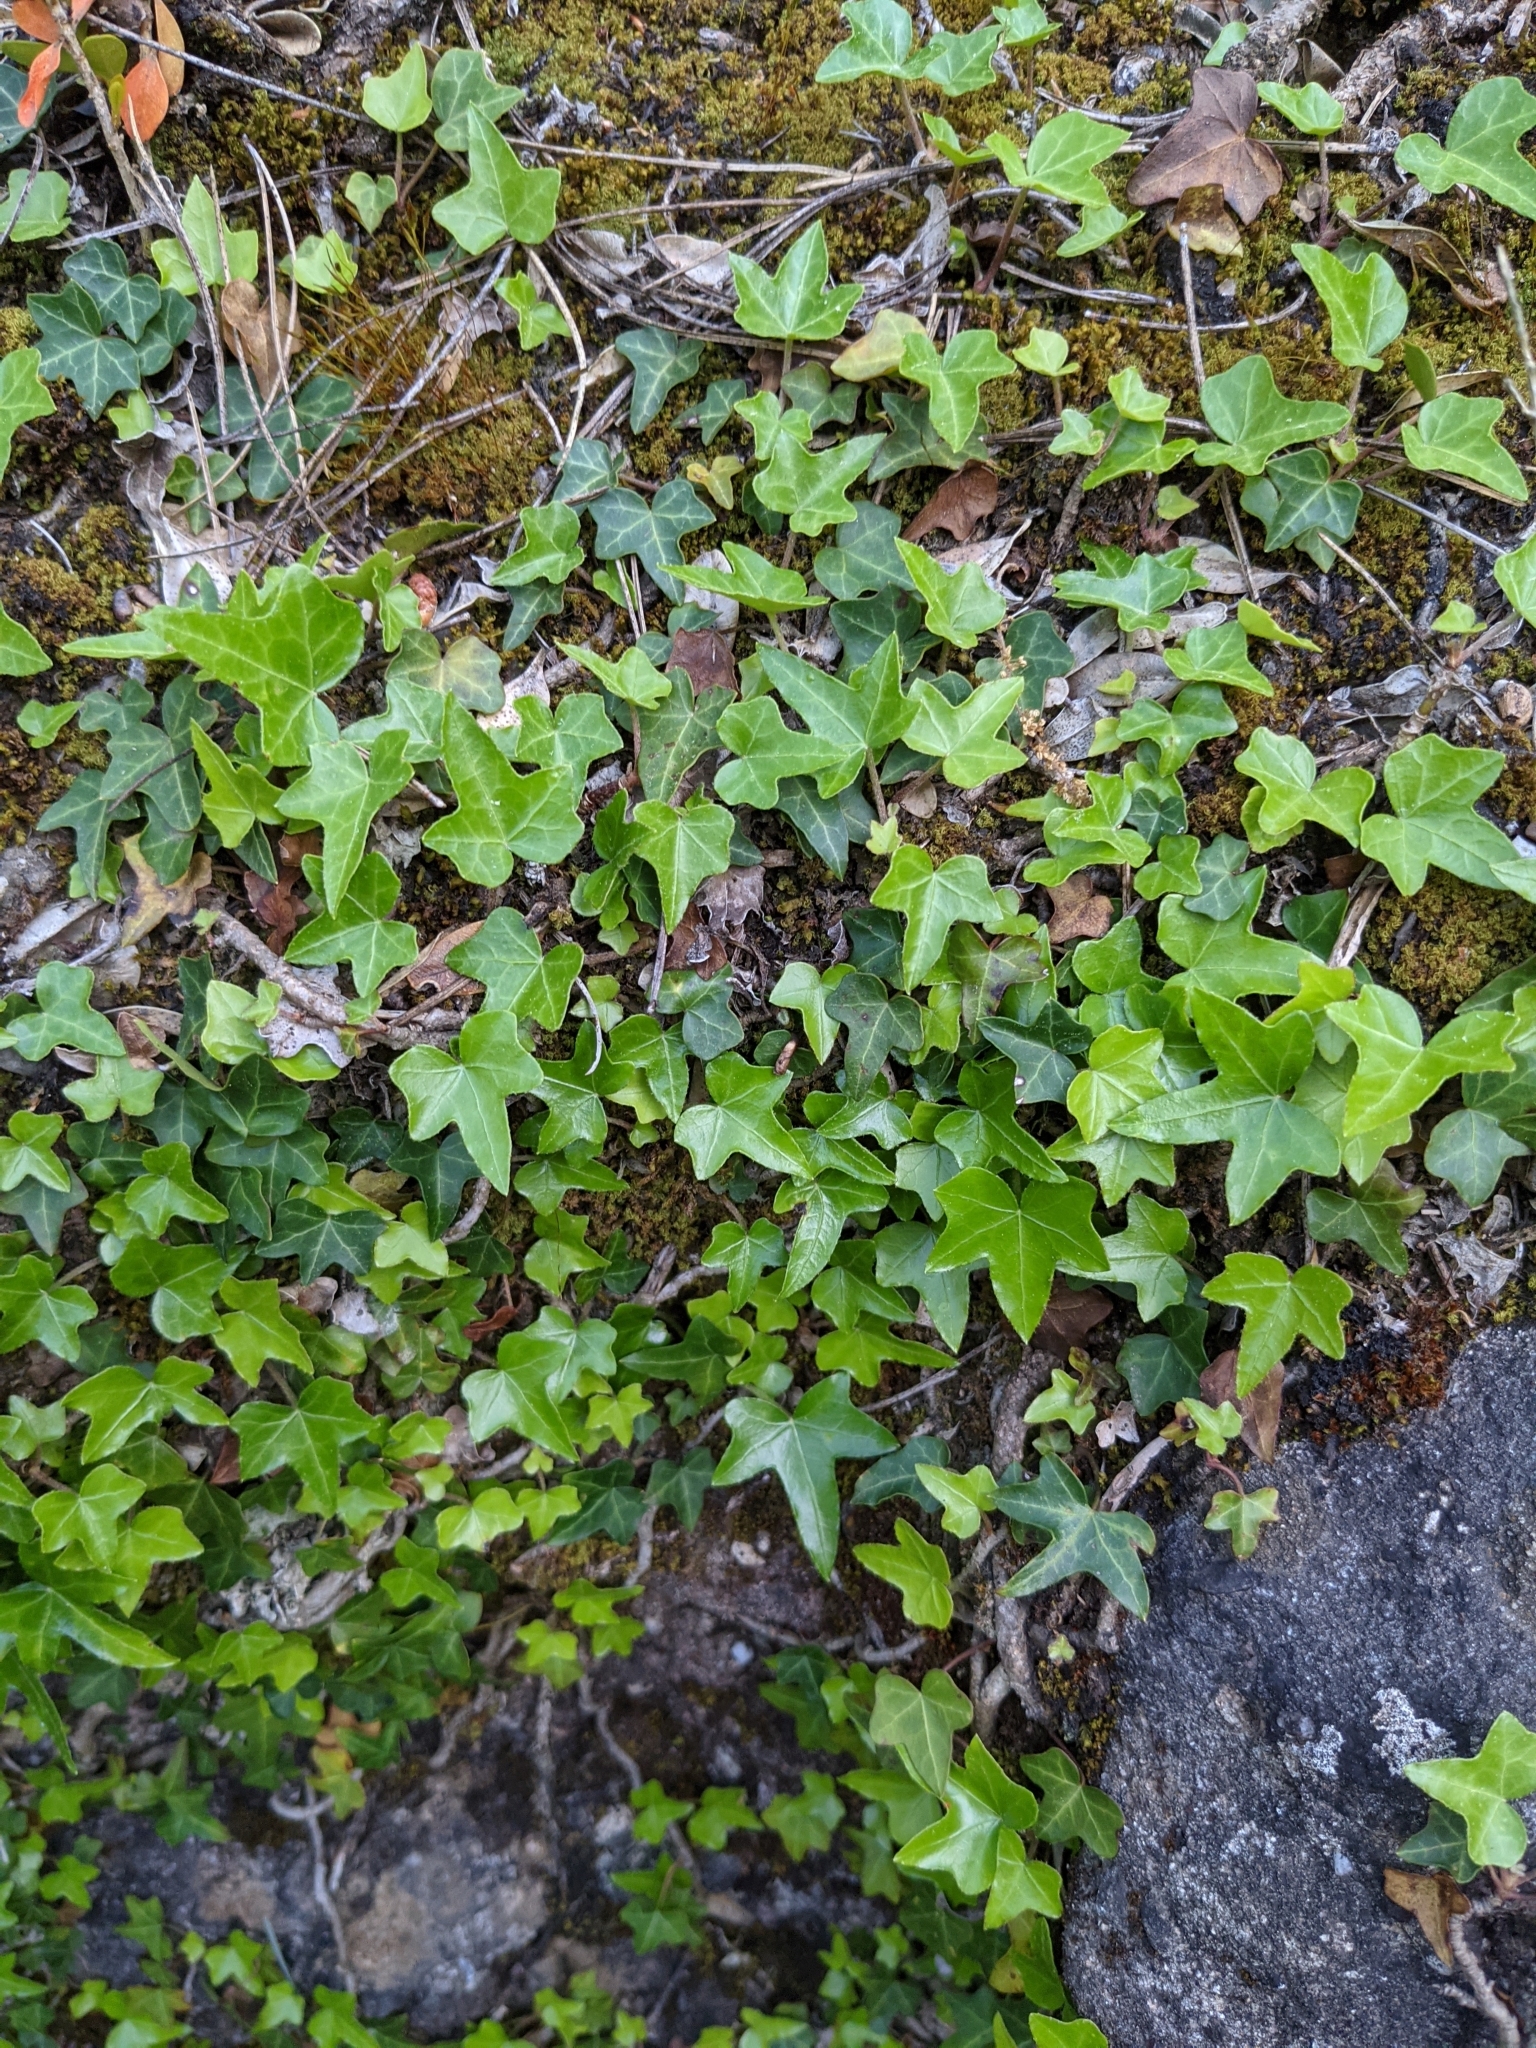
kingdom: Plantae
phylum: Tracheophyta
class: Magnoliopsida
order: Apiales
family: Araliaceae
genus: Hedera
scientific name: Hedera helix
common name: Ivy
